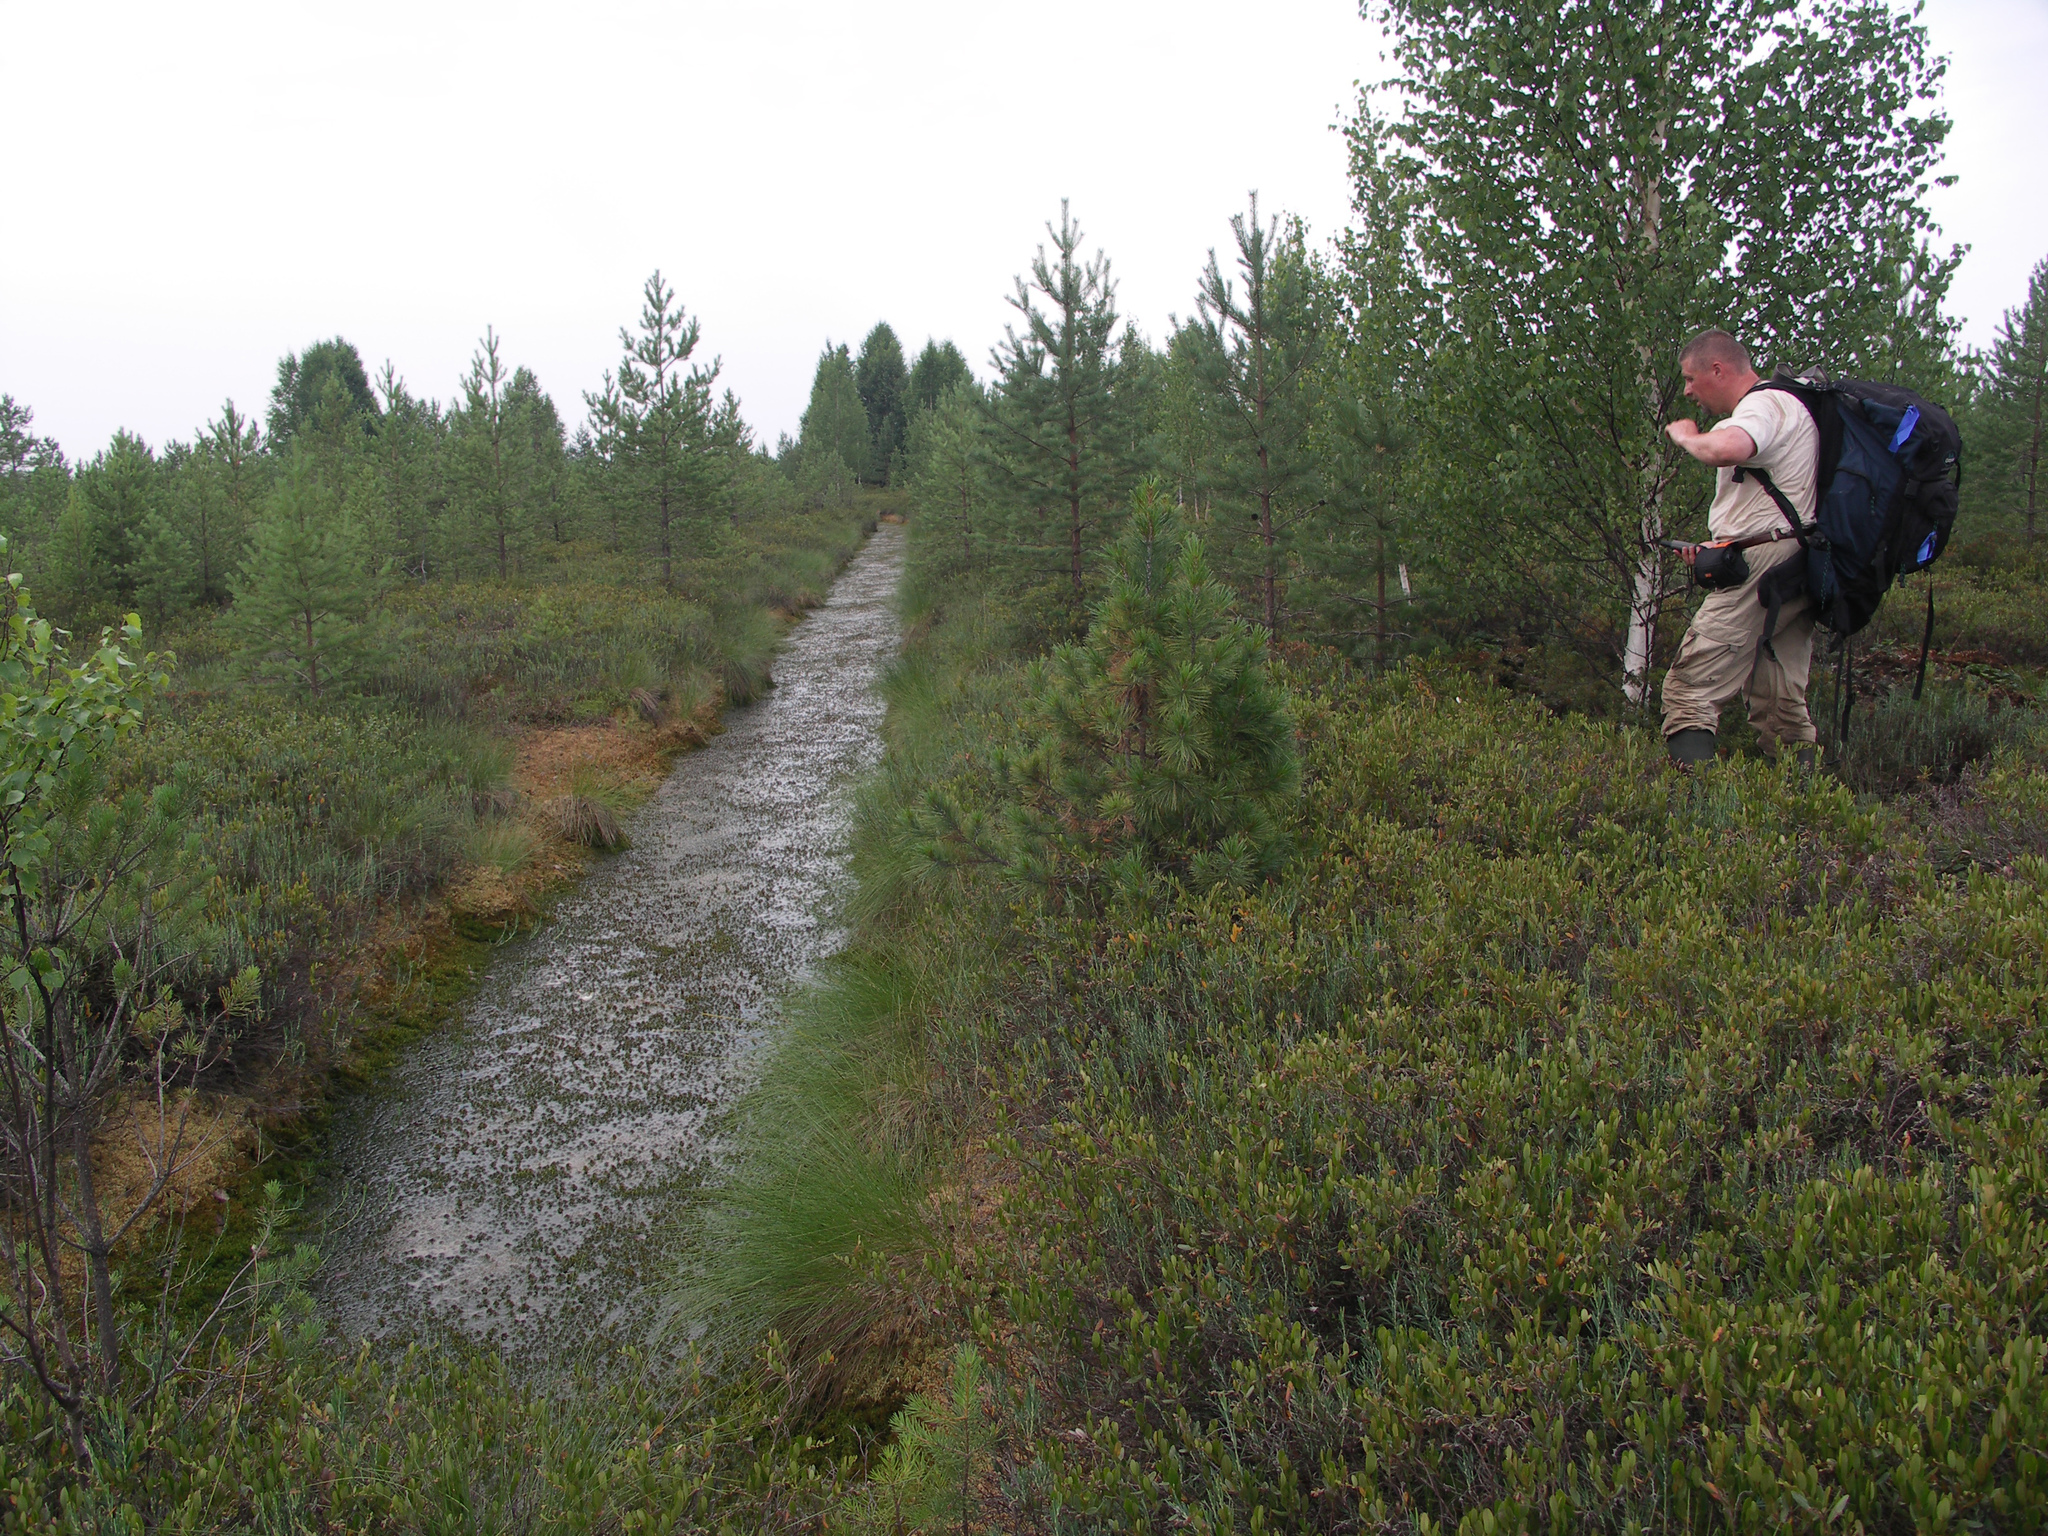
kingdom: Plantae
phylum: Tracheophyta
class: Magnoliopsida
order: Fagales
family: Betulaceae
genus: Betula
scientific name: Betula pubescens
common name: Downy birch
